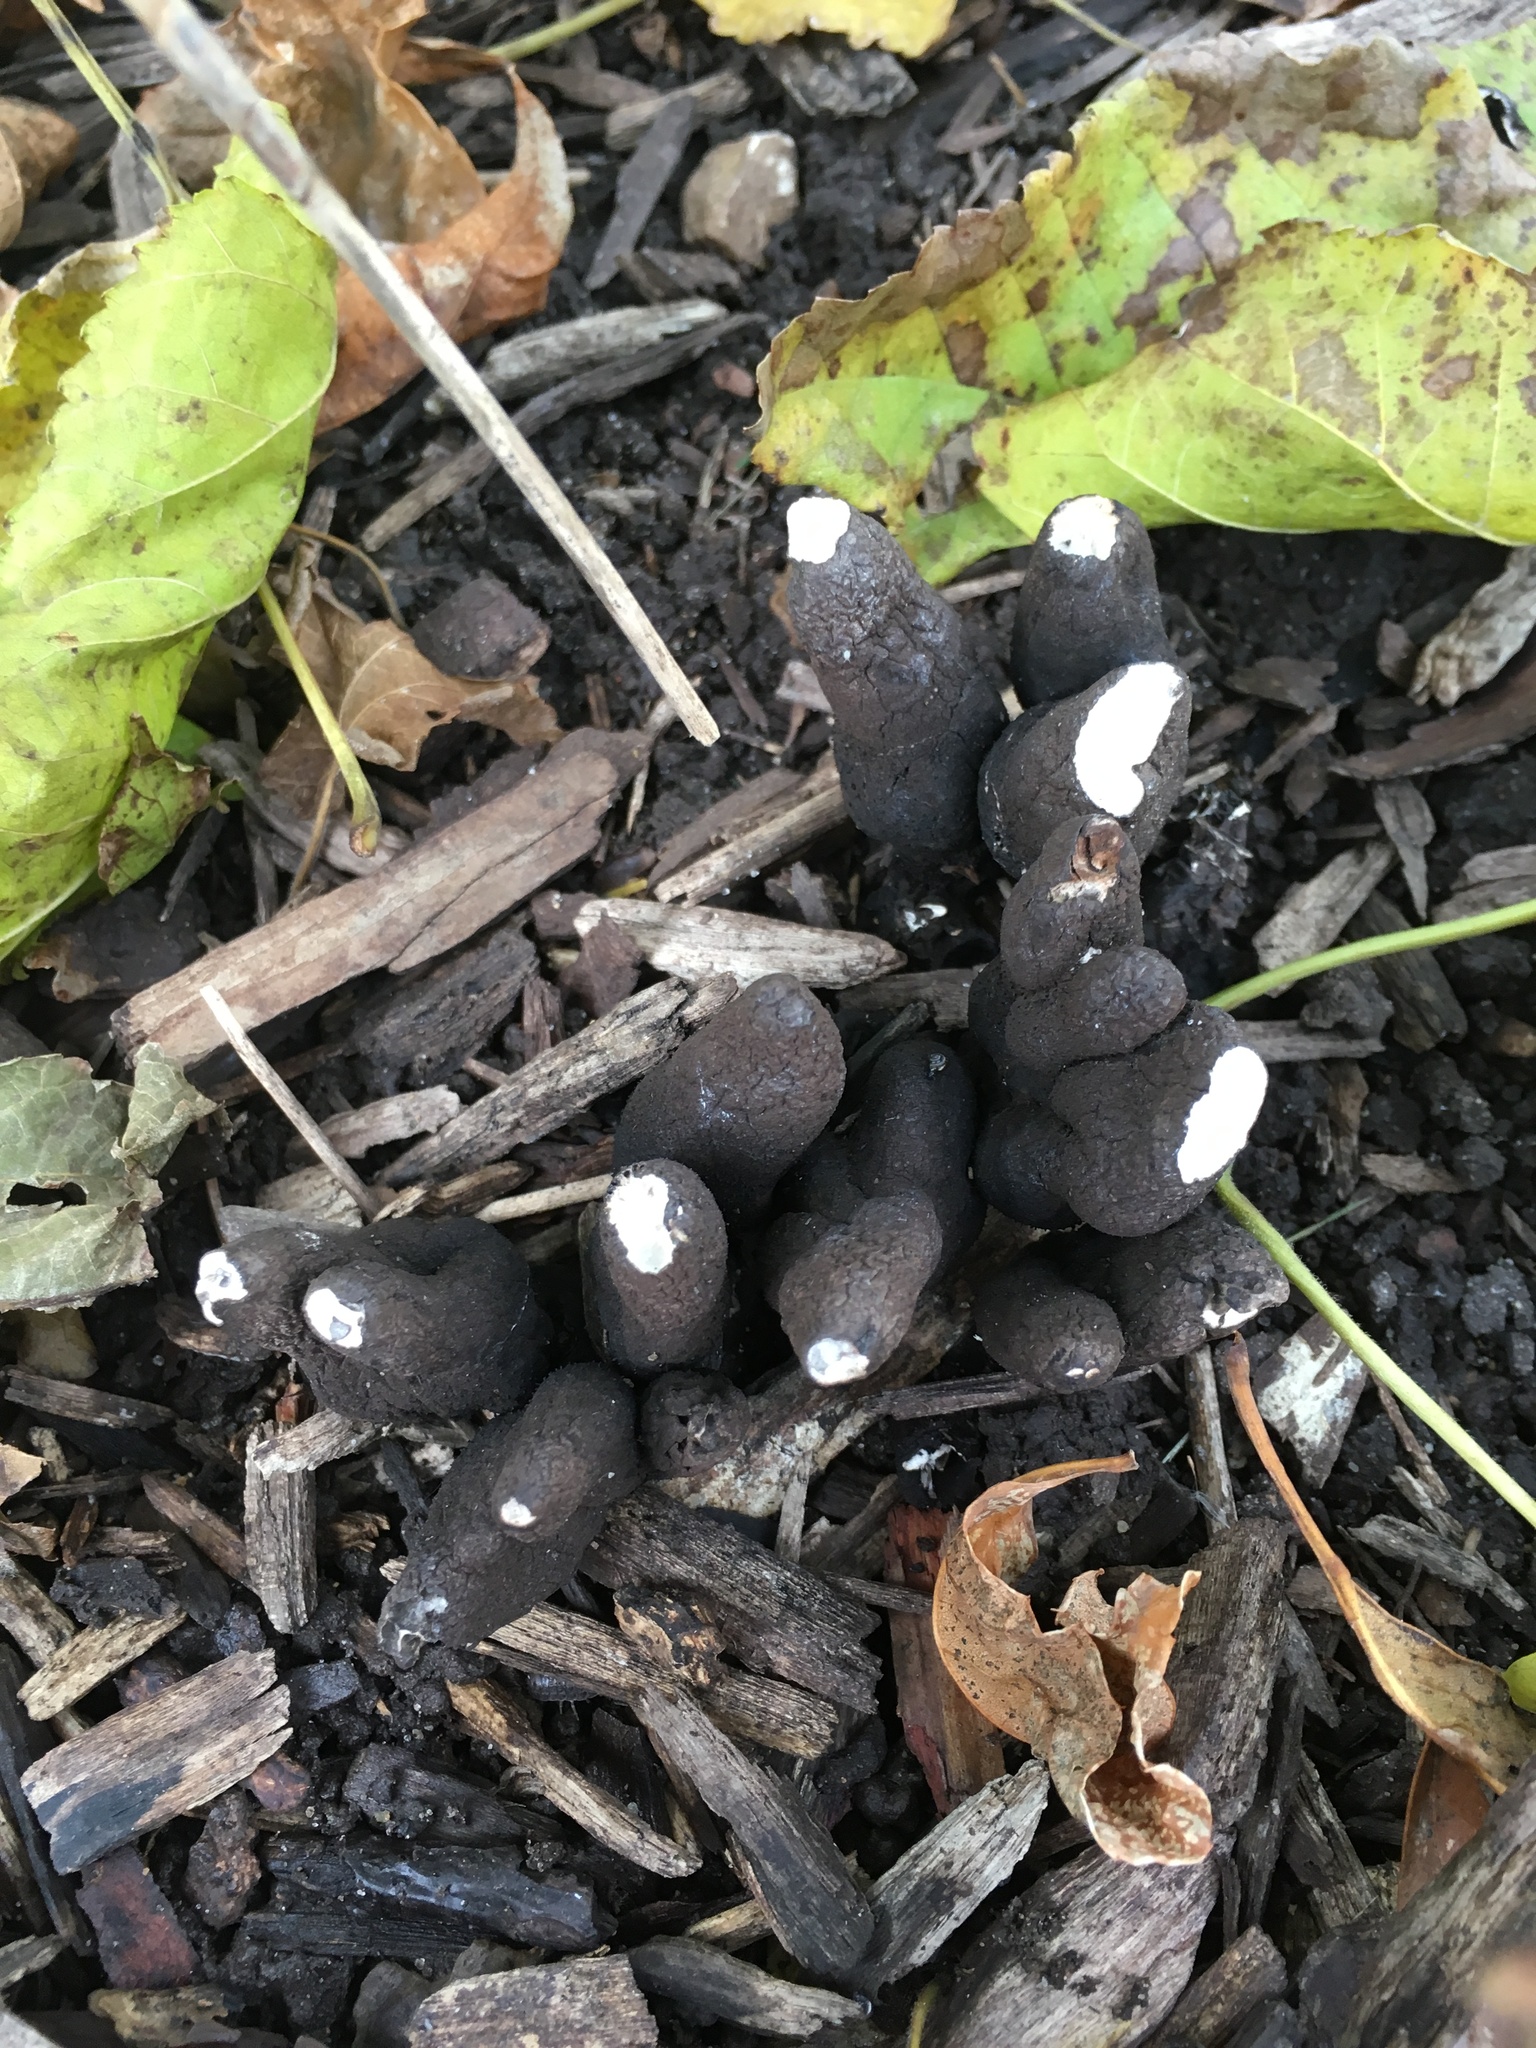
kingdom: Fungi
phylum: Ascomycota
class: Sordariomycetes
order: Xylariales
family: Xylariaceae
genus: Xylaria
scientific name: Xylaria polymorpha
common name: Dead man's fingers
